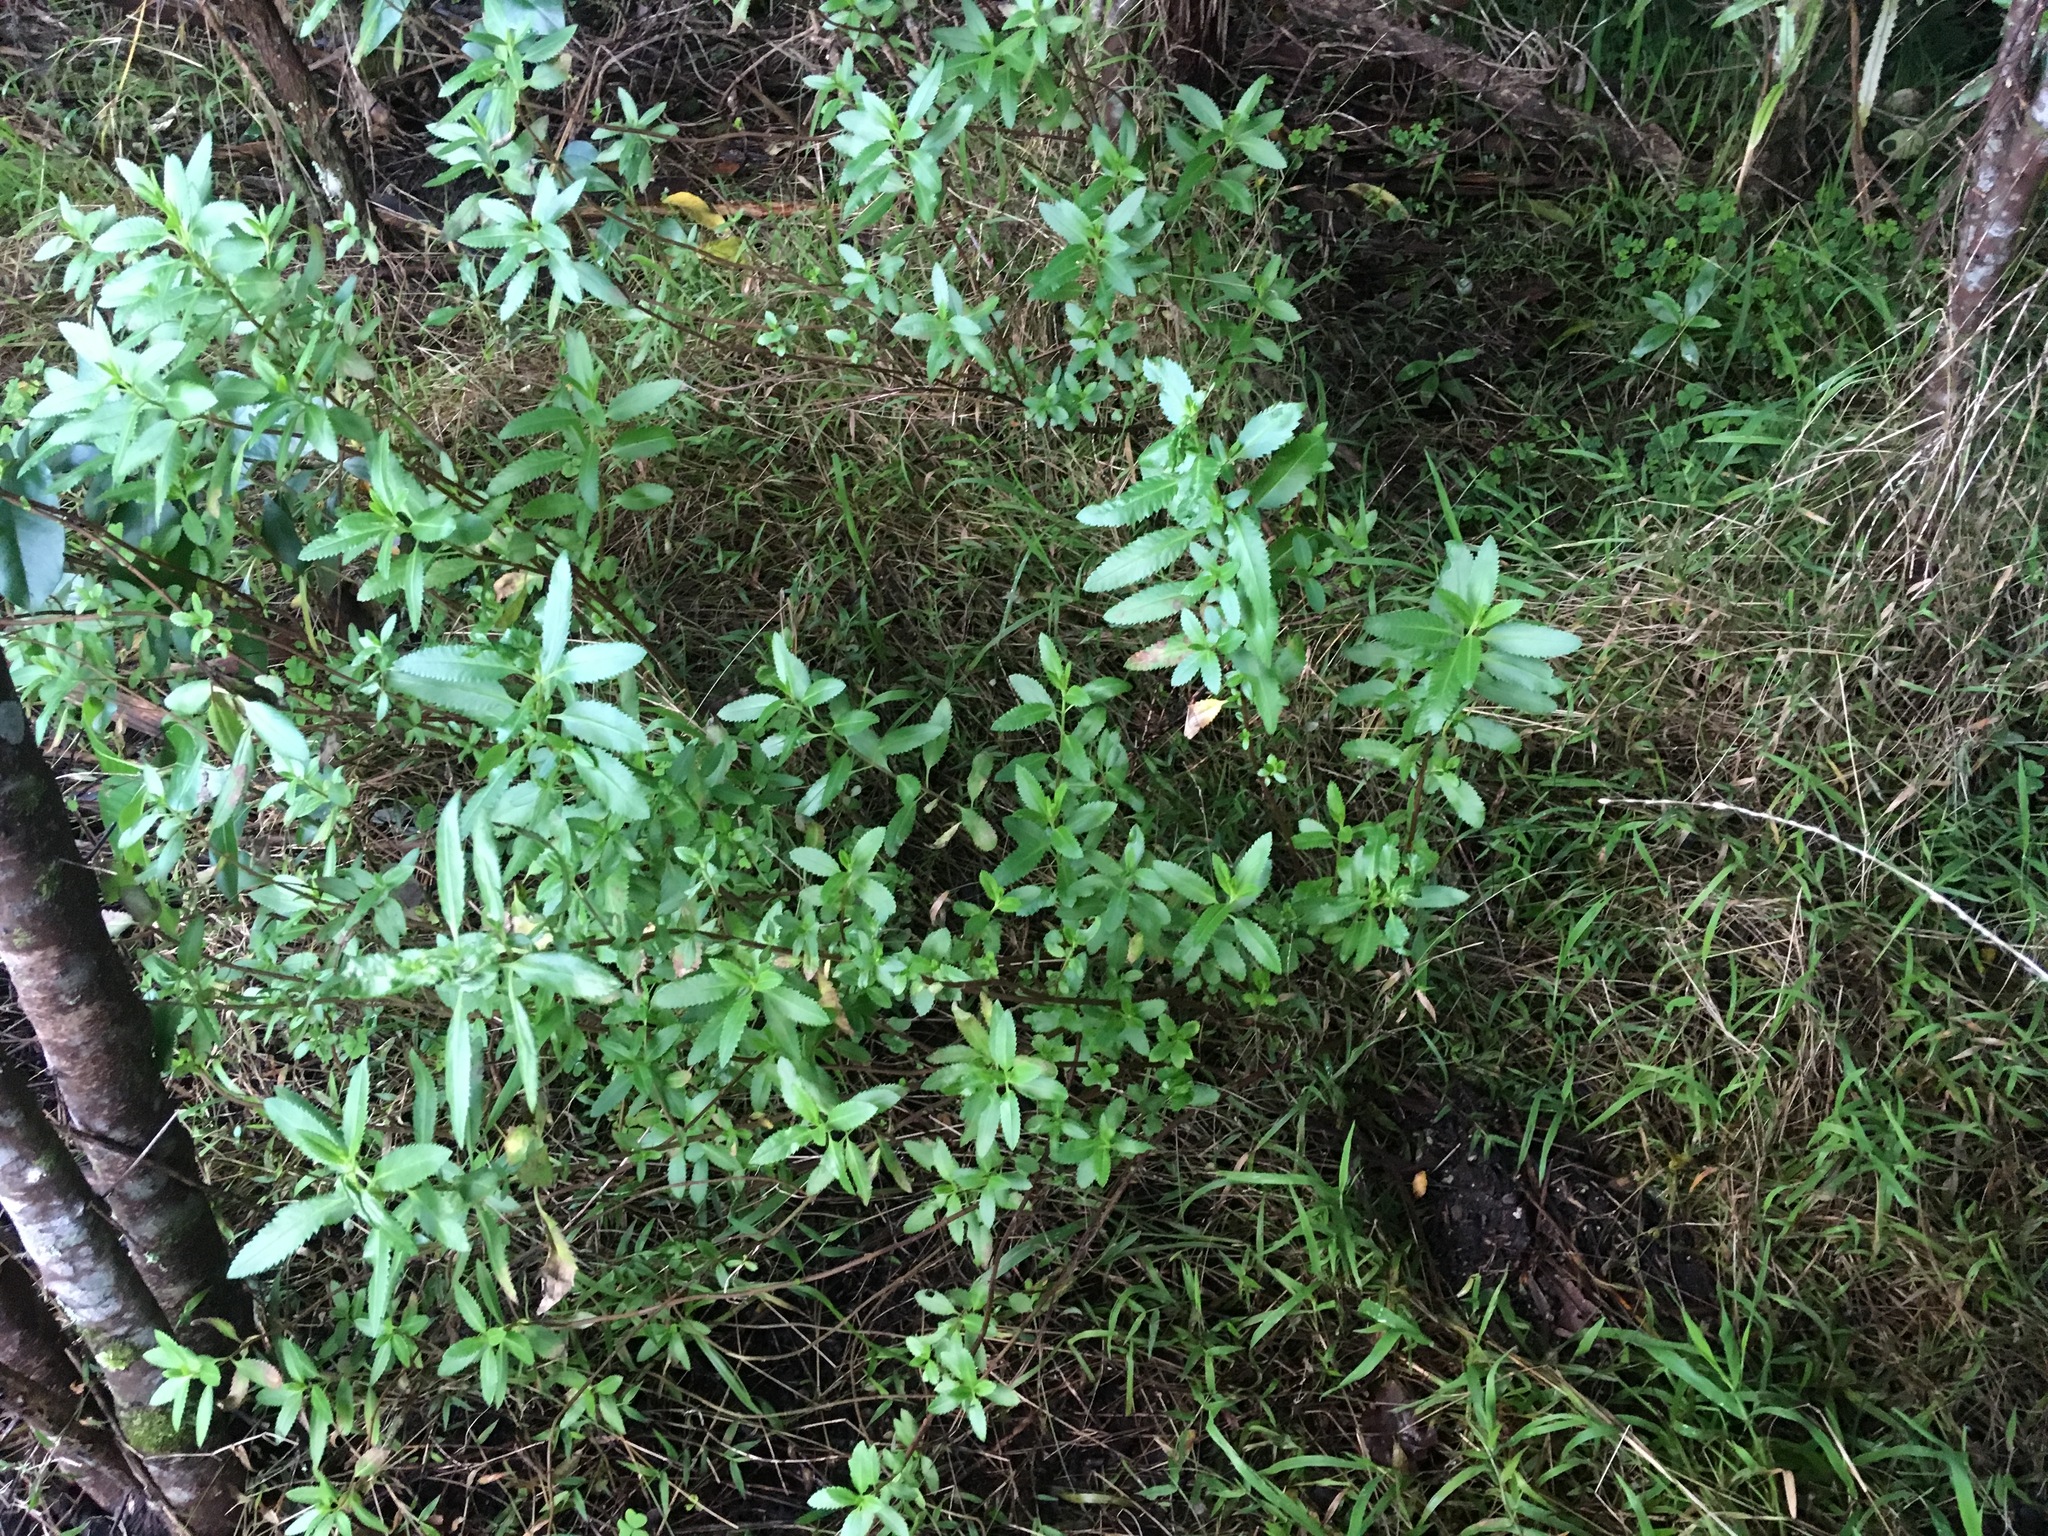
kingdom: Plantae
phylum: Tracheophyta
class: Magnoliopsida
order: Saxifragales
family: Haloragaceae
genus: Haloragis
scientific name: Haloragis erecta
